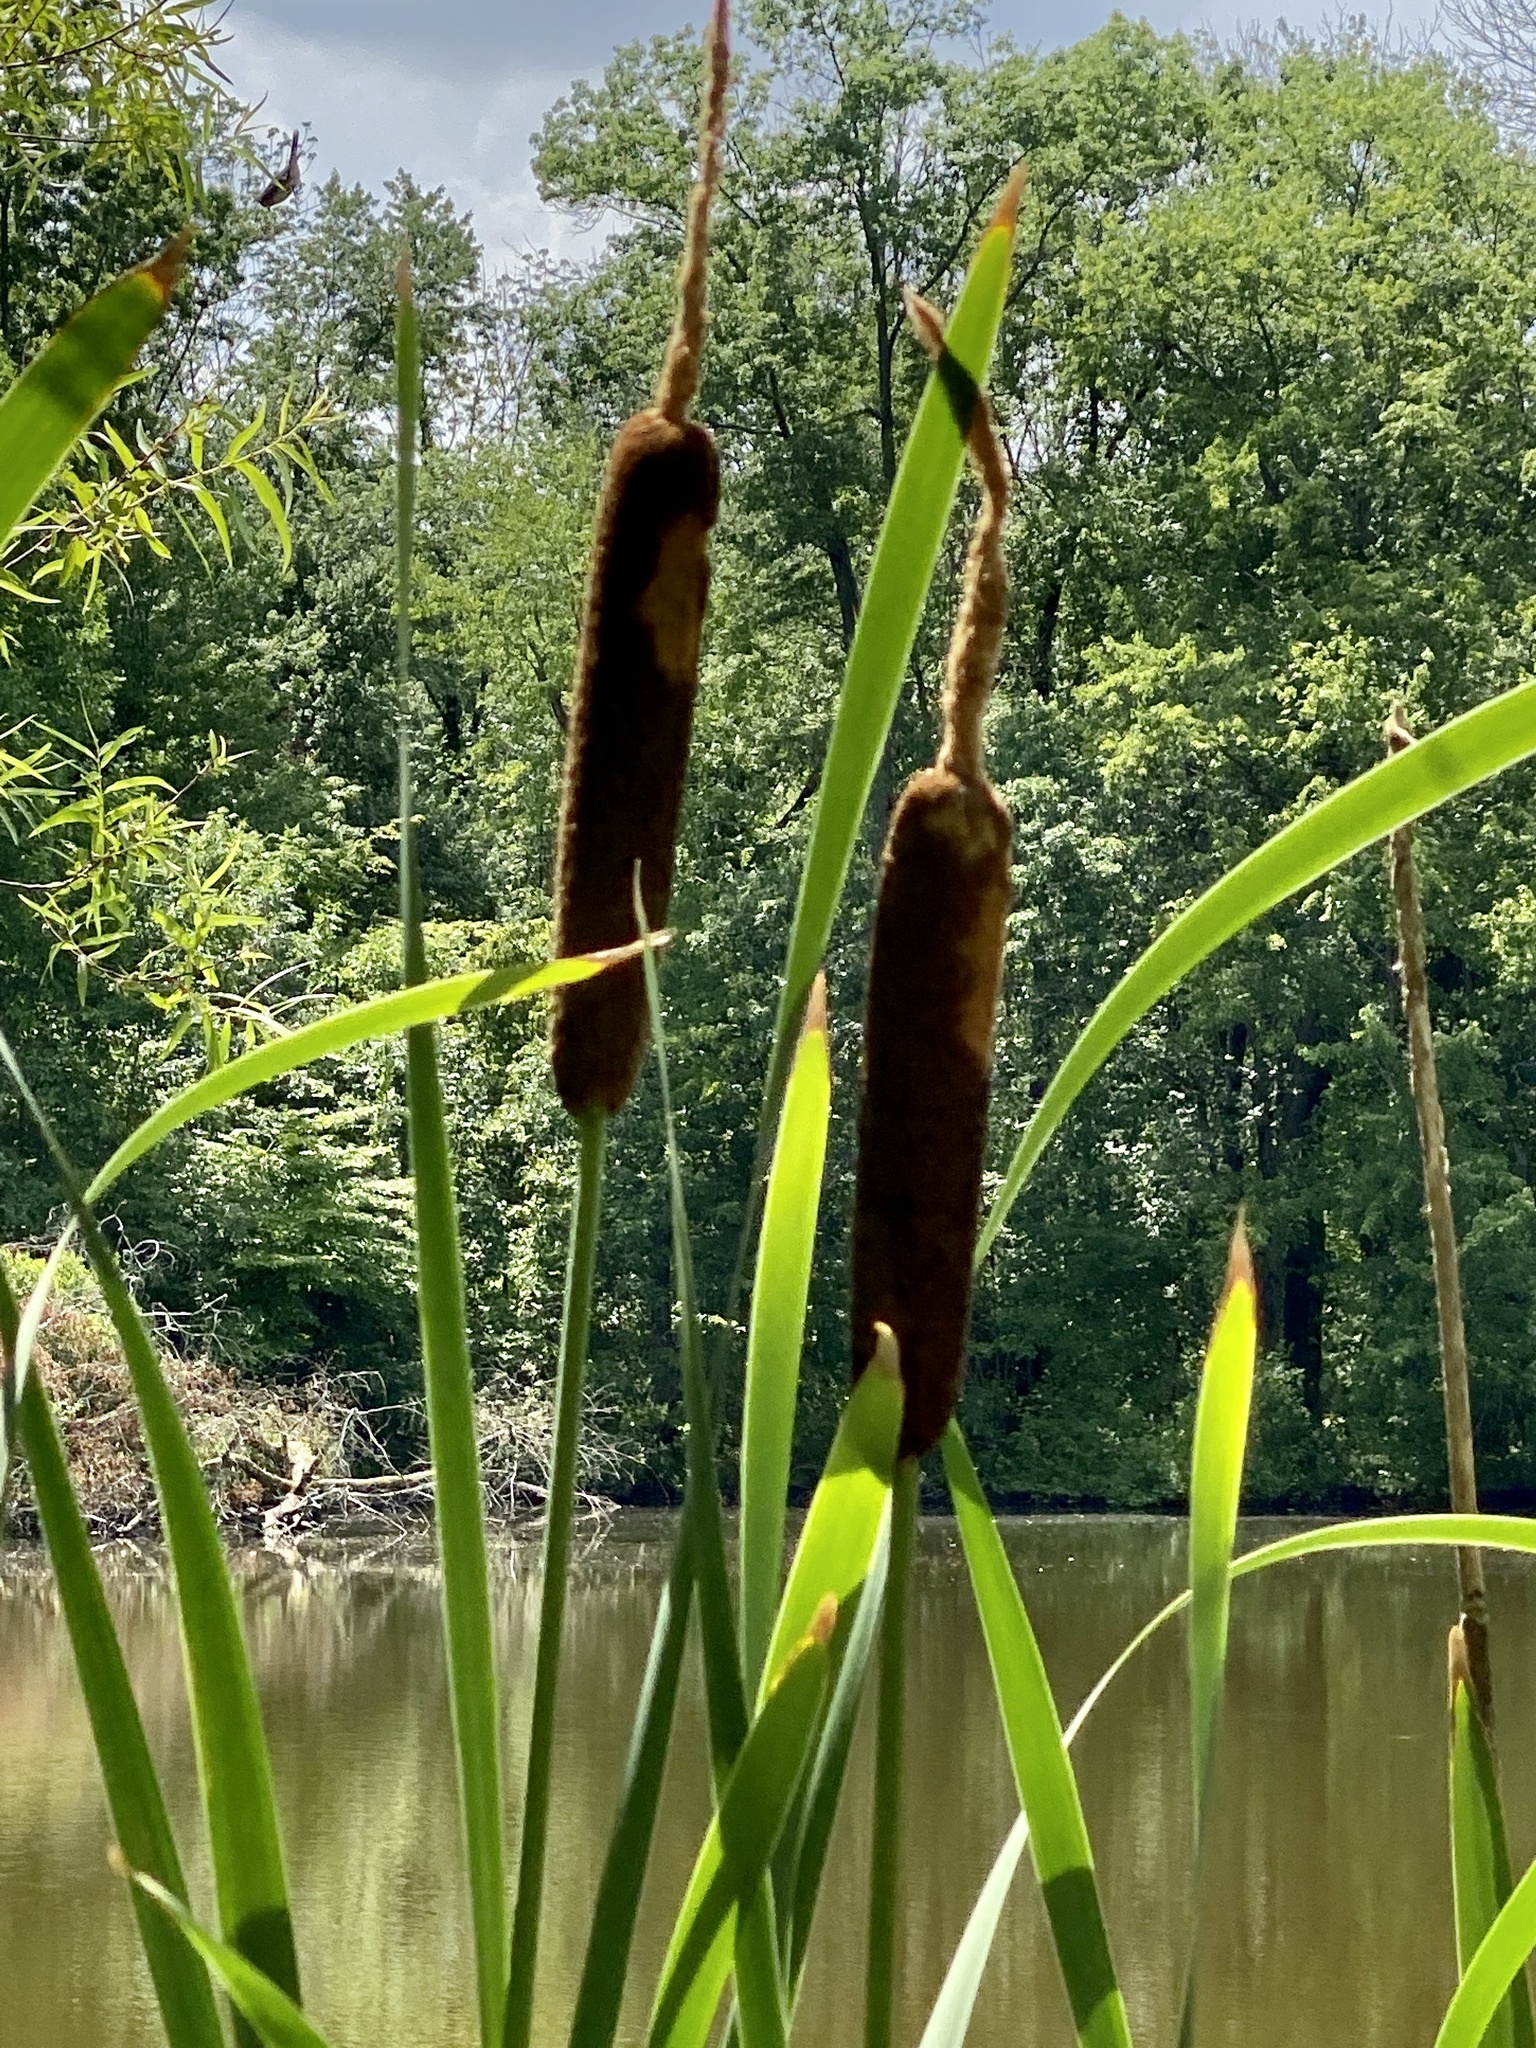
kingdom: Plantae
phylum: Tracheophyta
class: Liliopsida
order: Poales
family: Typhaceae
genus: Typha
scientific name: Typha latifolia
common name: Broadleaf cattail
